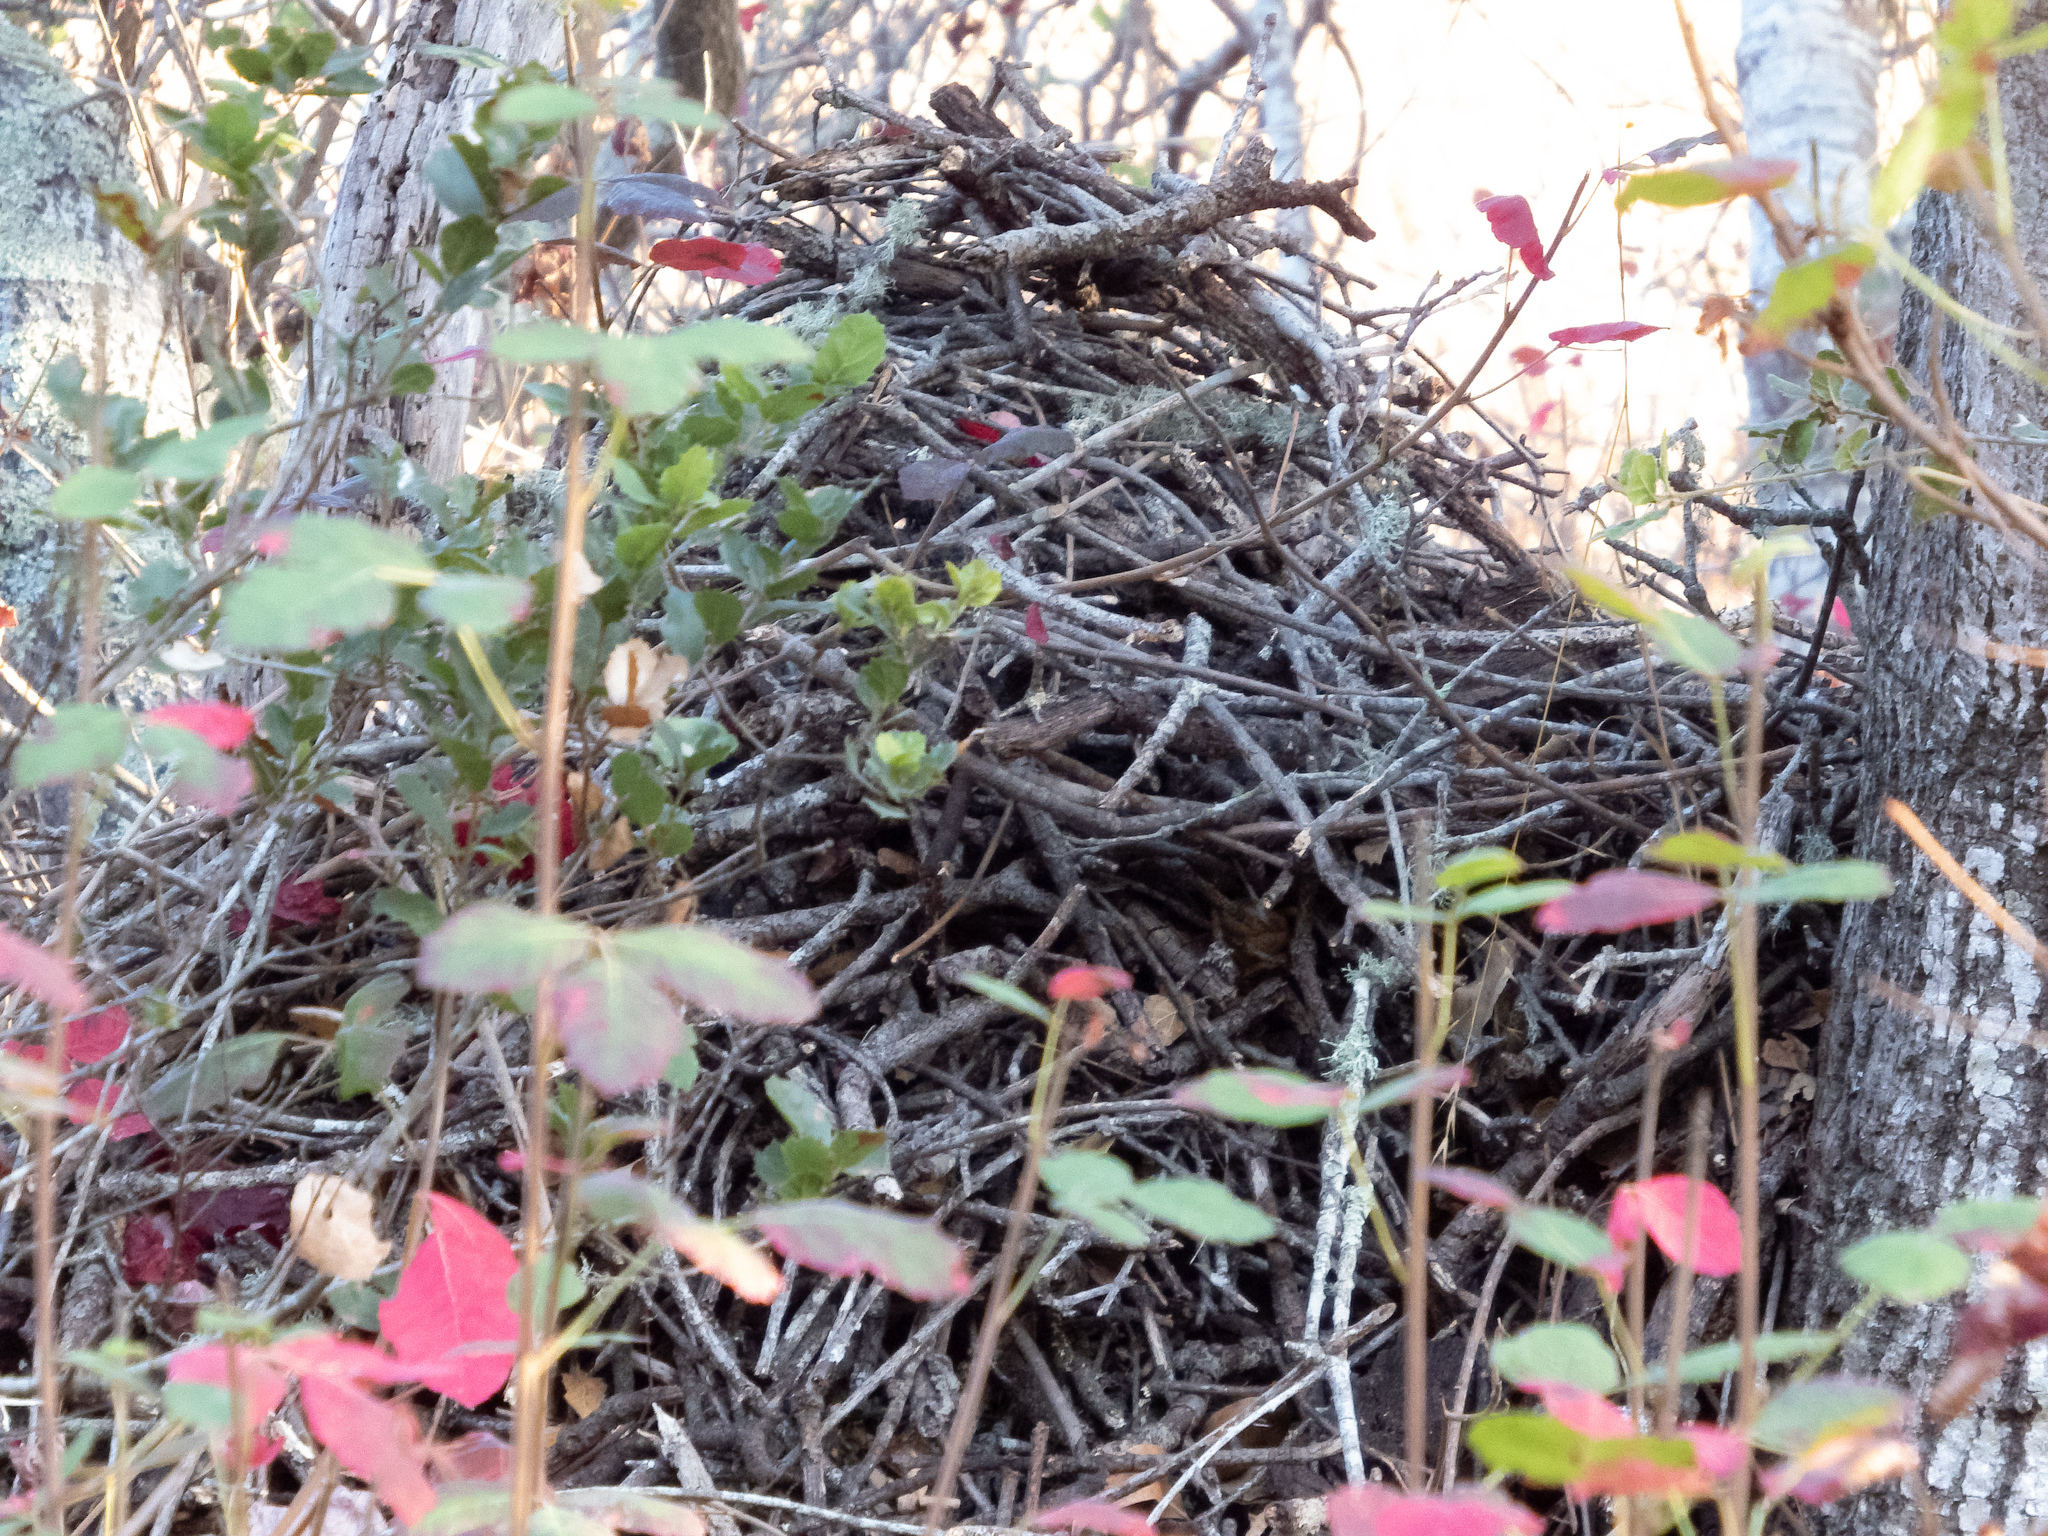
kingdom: Animalia
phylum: Chordata
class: Mammalia
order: Rodentia
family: Cricetidae
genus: Neotoma
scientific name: Neotoma fuscipes
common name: Dusky-footed woodrat
